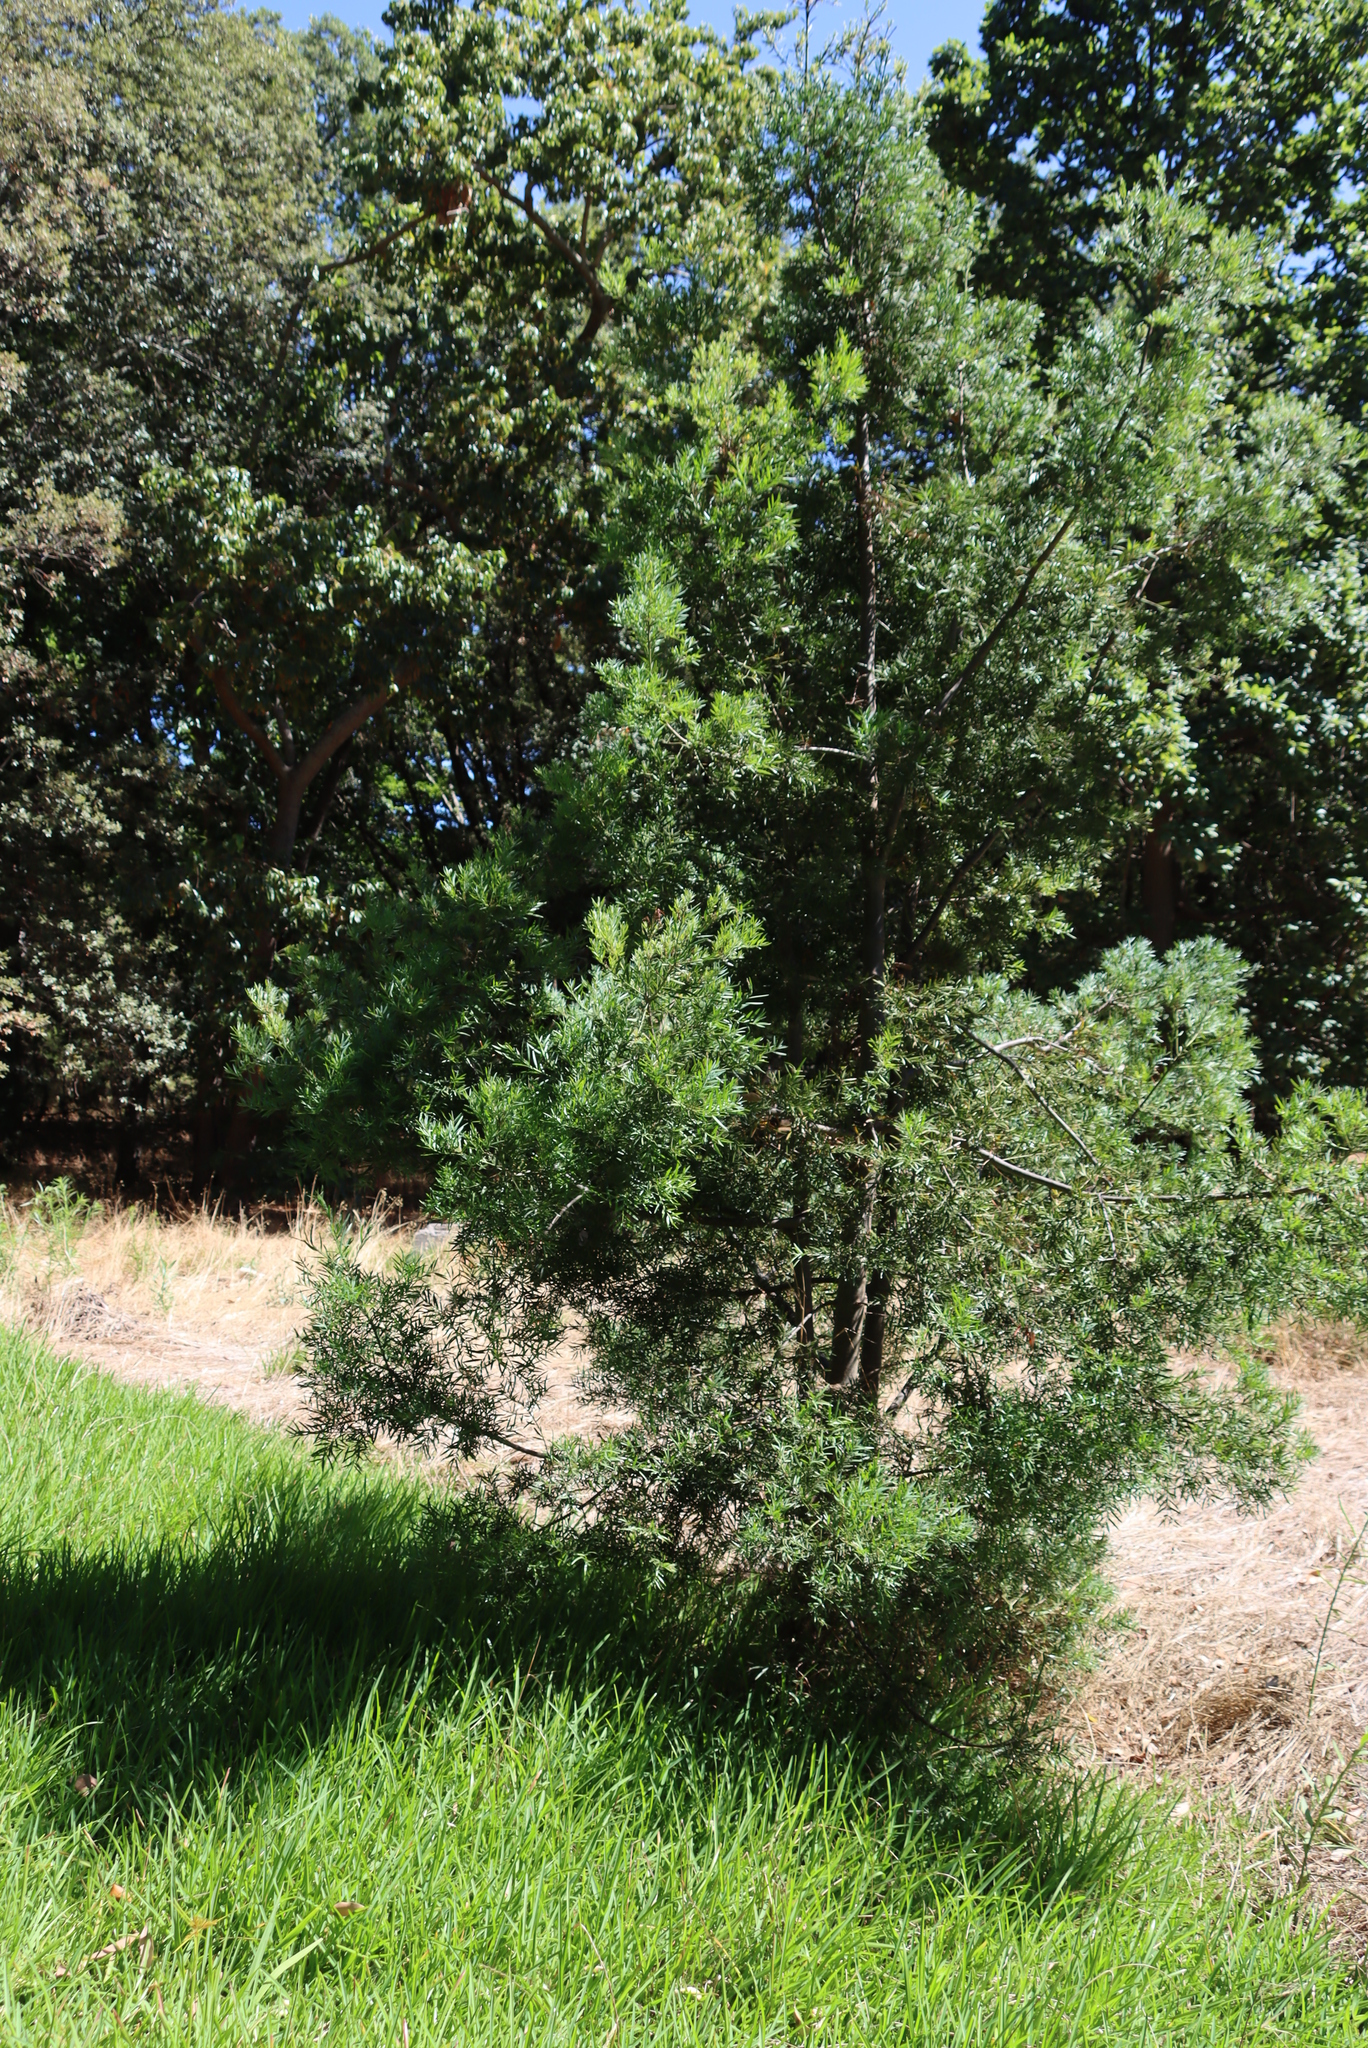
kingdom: Plantae
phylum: Tracheophyta
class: Pinopsida
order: Pinales
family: Podocarpaceae
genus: Afrocarpus
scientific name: Afrocarpus falcatus
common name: Bastard yellowwood
